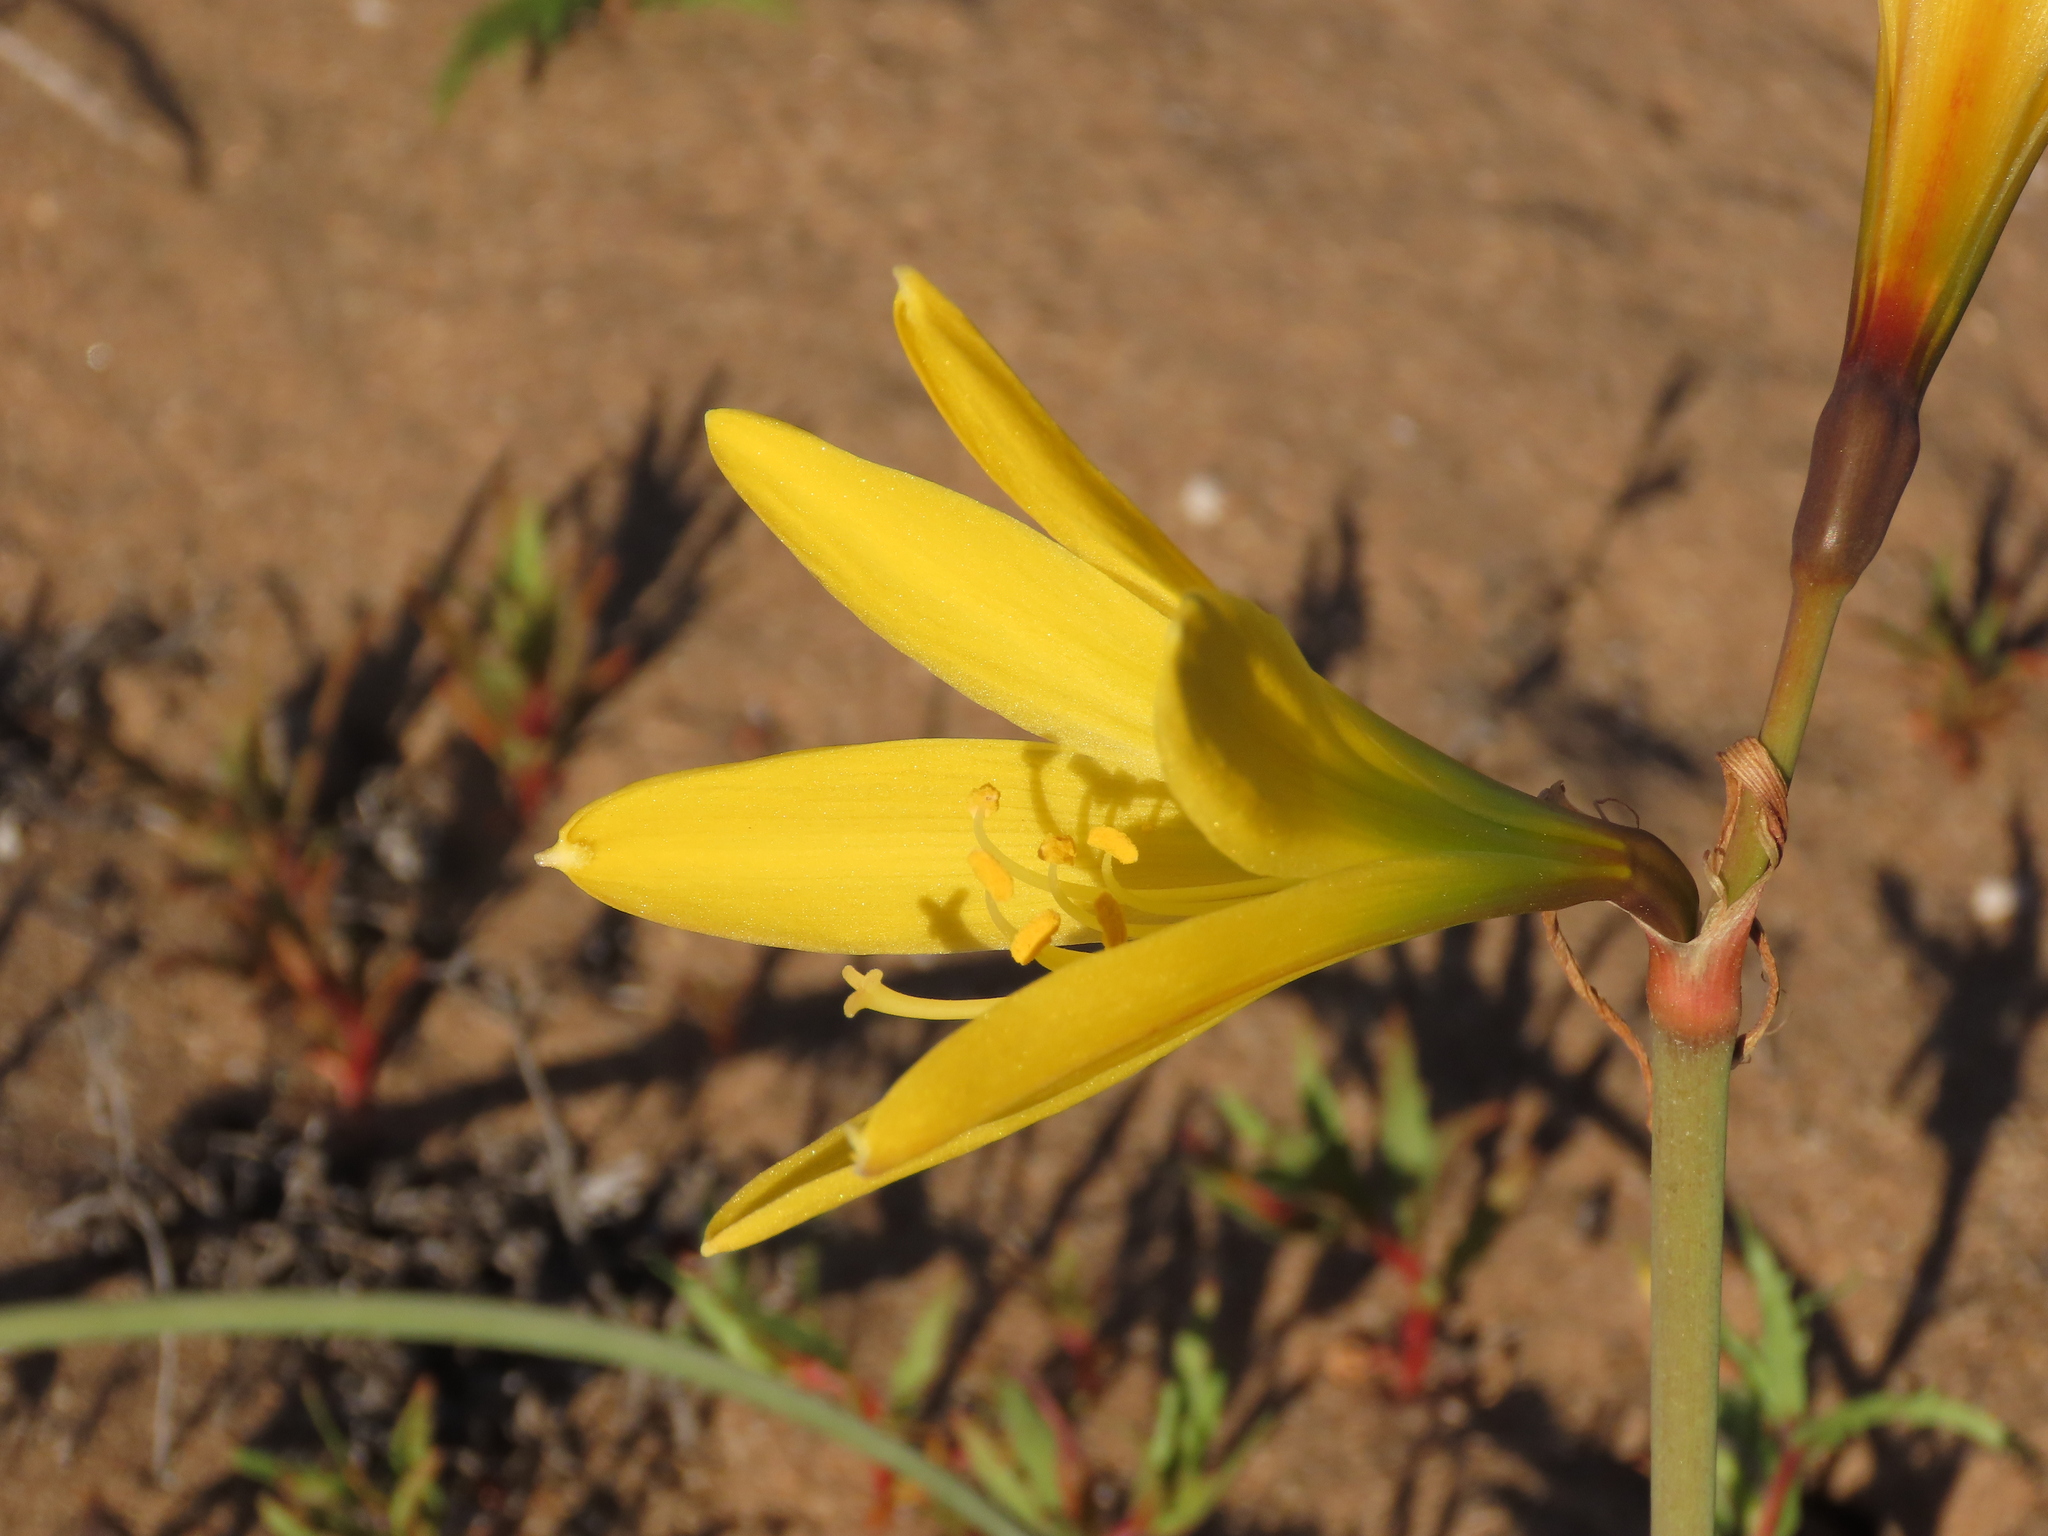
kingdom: Plantae
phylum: Tracheophyta
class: Liliopsida
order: Asparagales
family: Amaryllidaceae
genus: Zephyranthes
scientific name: Zephyranthes bagnoldii
